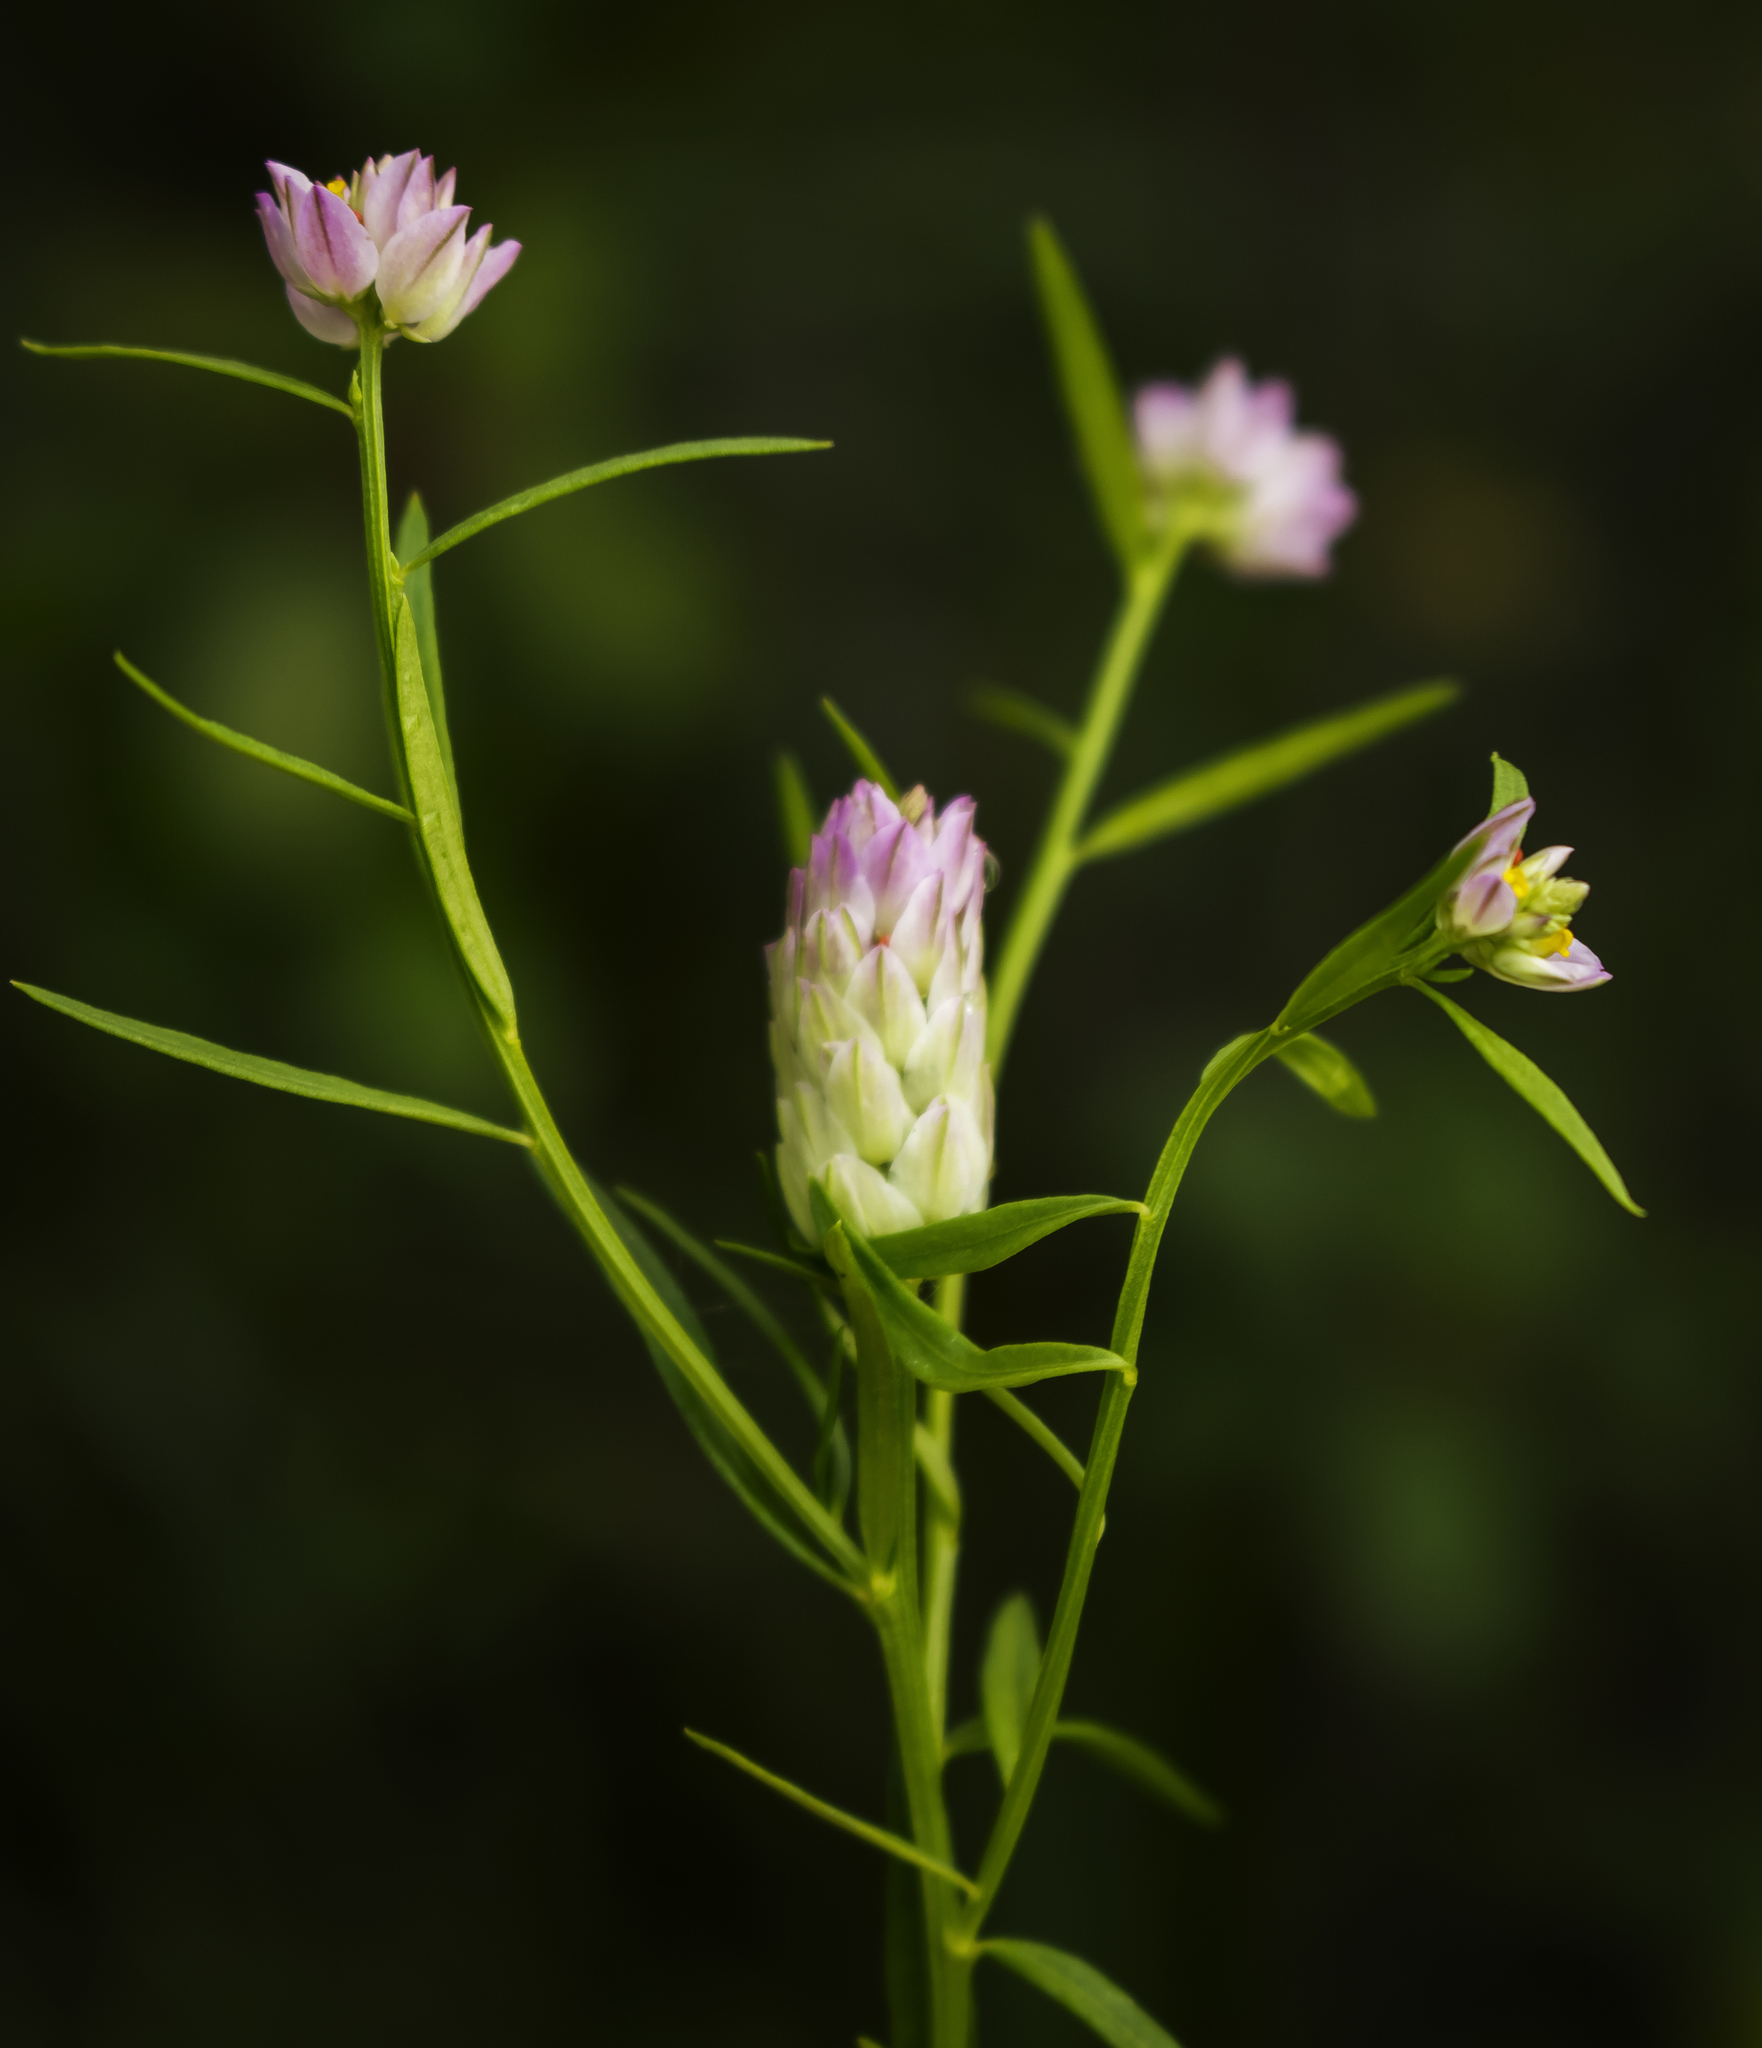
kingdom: Plantae
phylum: Tracheophyta
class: Magnoliopsida
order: Fabales
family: Polygalaceae
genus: Polygala
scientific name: Polygala sanguinea
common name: Blood milkwort
